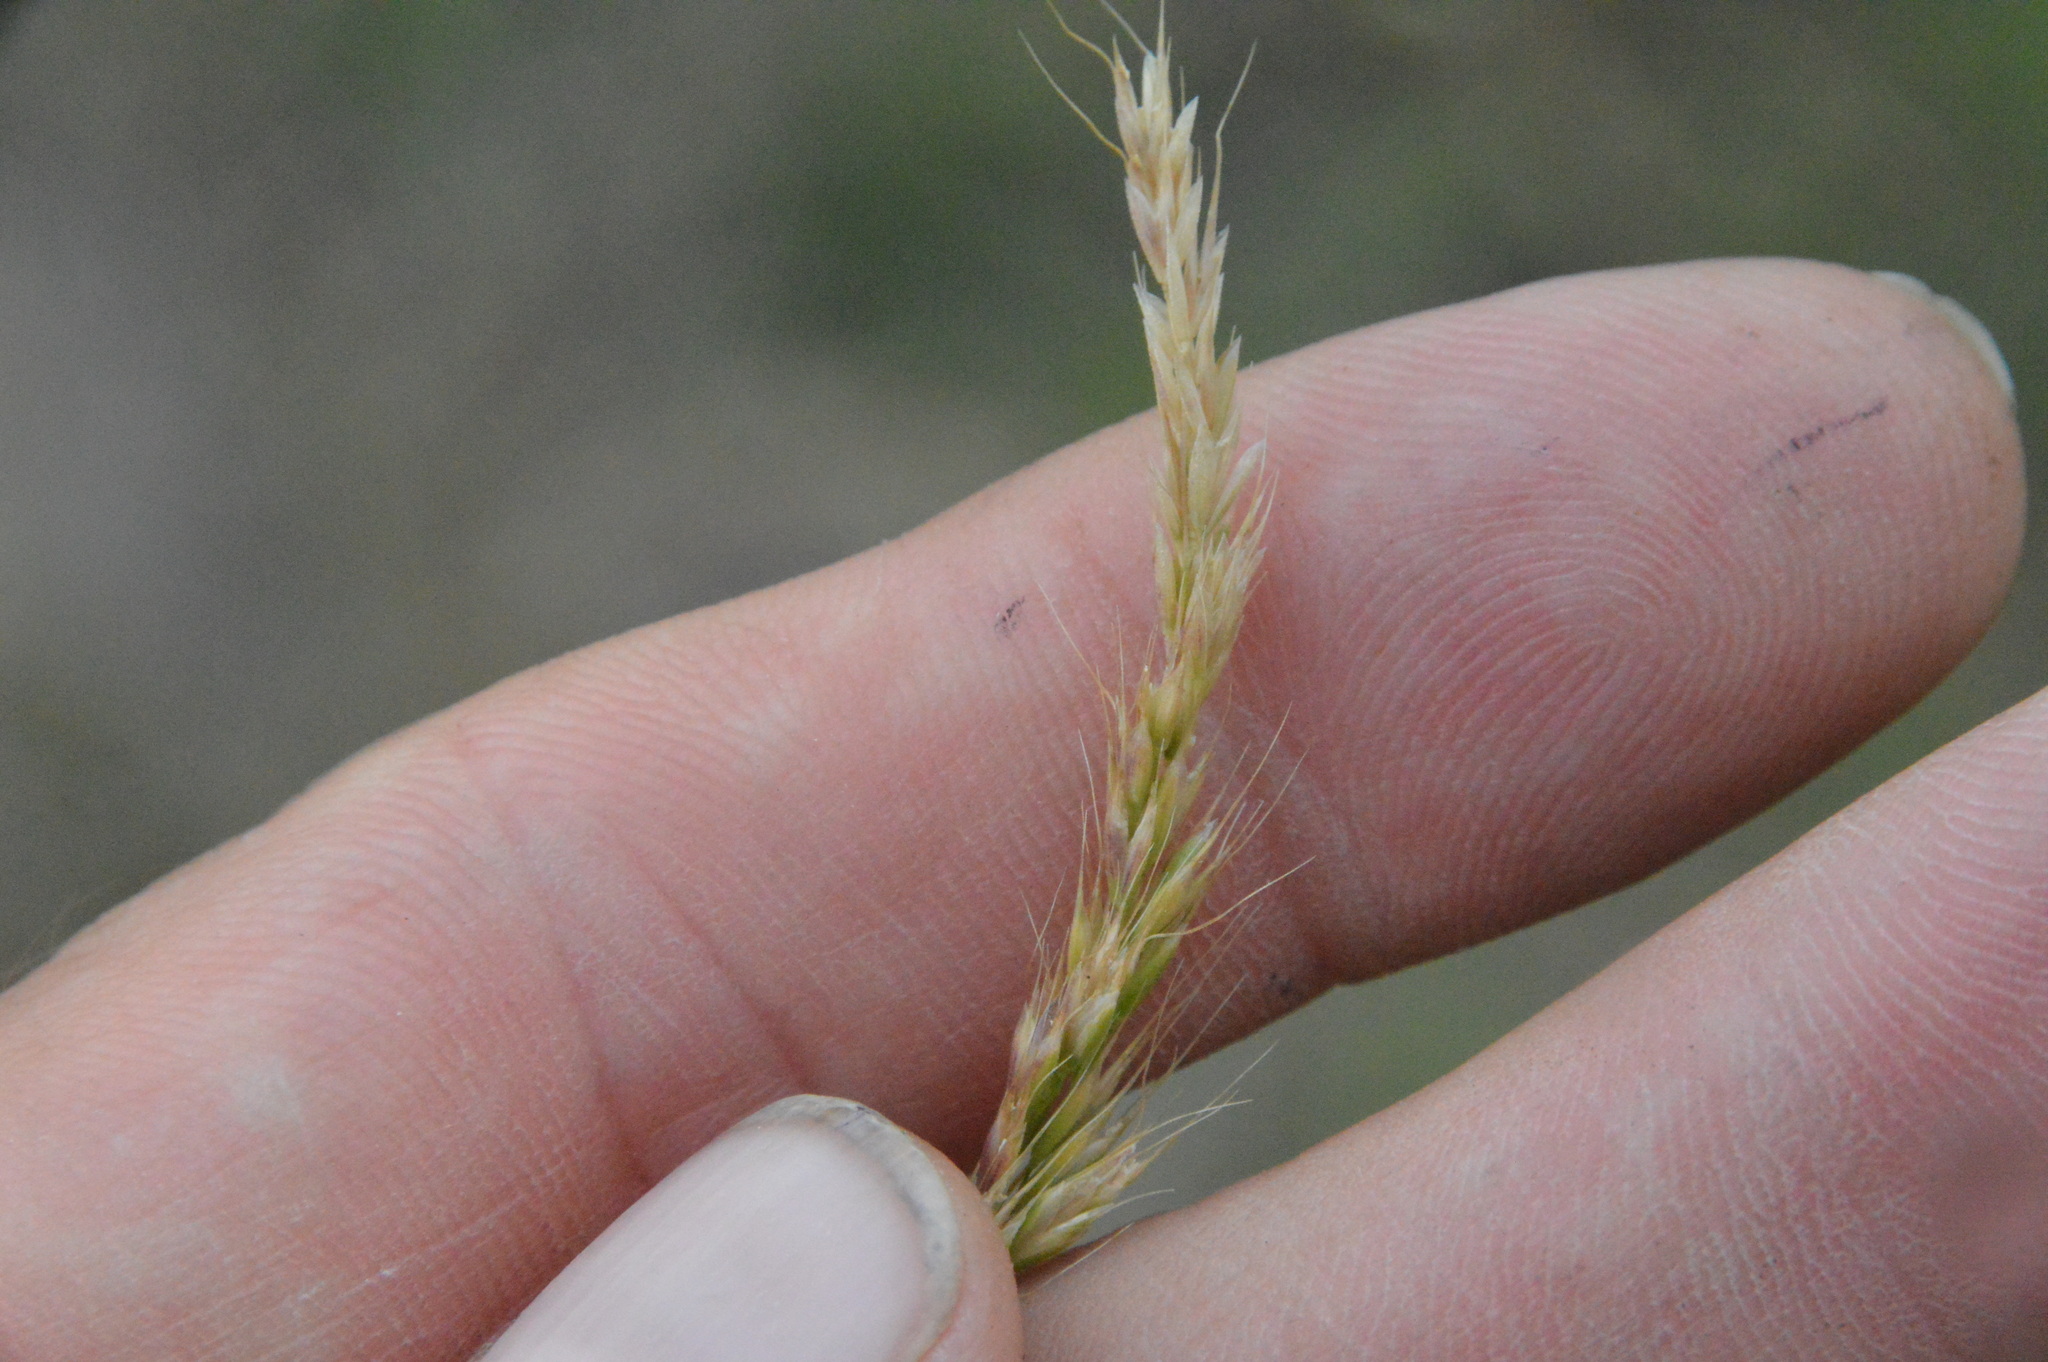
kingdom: Plantae
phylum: Tracheophyta
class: Liliopsida
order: Poales
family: Poaceae
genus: Trisetum
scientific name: Trisetum interruptum
